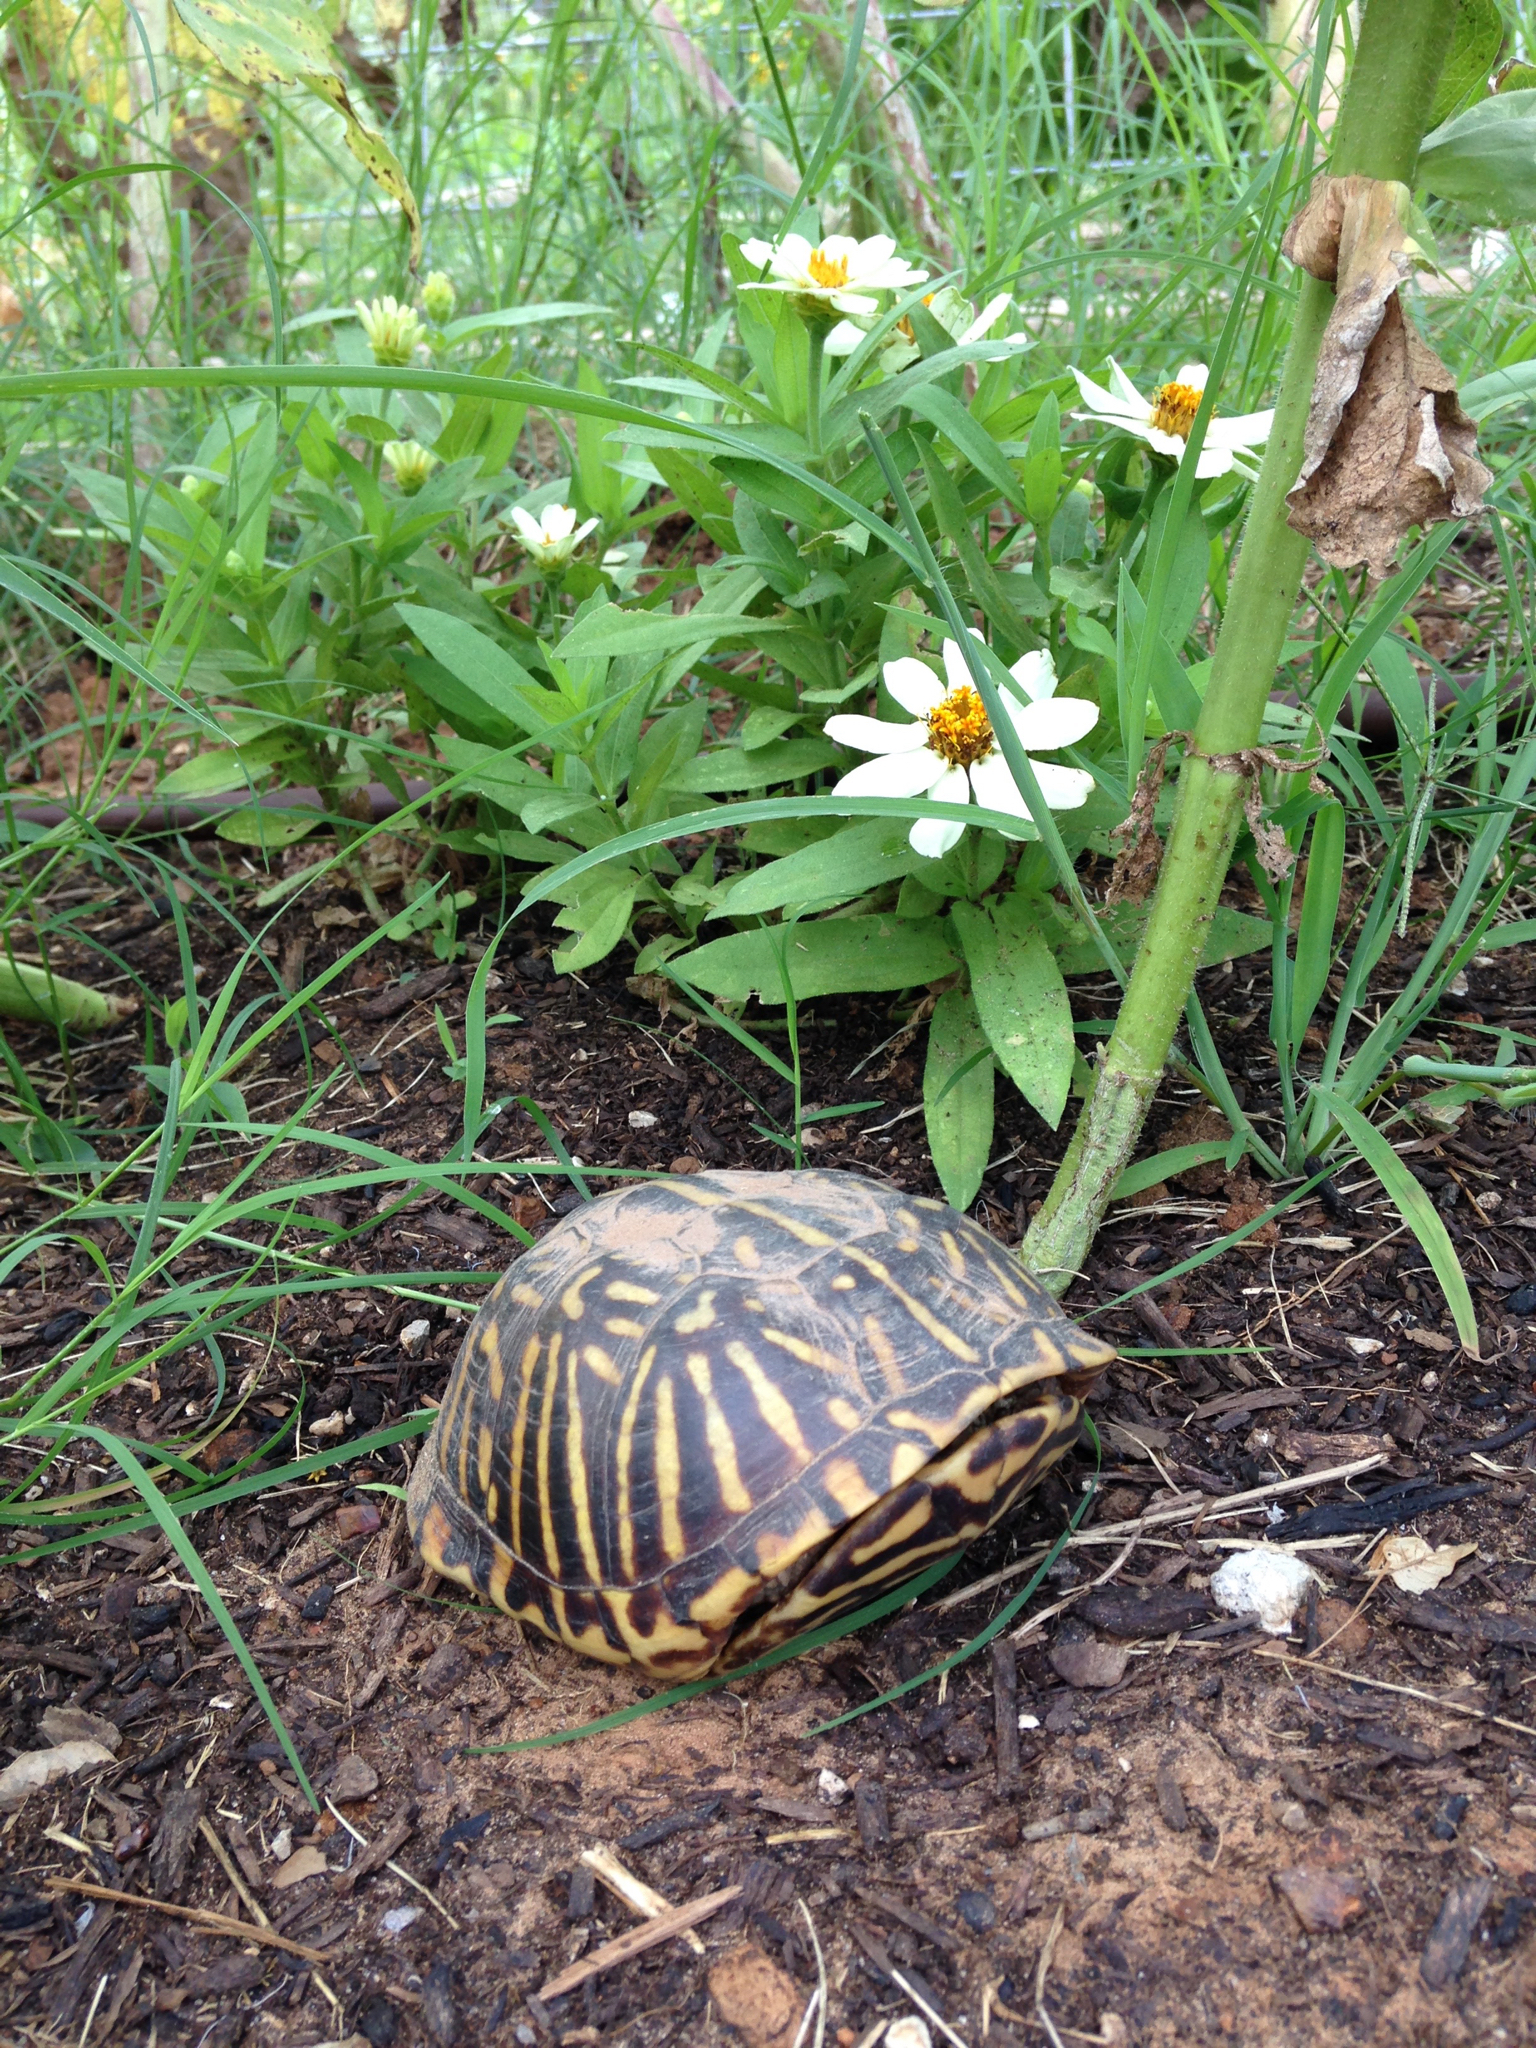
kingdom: Animalia
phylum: Chordata
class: Testudines
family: Emydidae
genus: Terrapene
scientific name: Terrapene ornata
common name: Western box turtle
